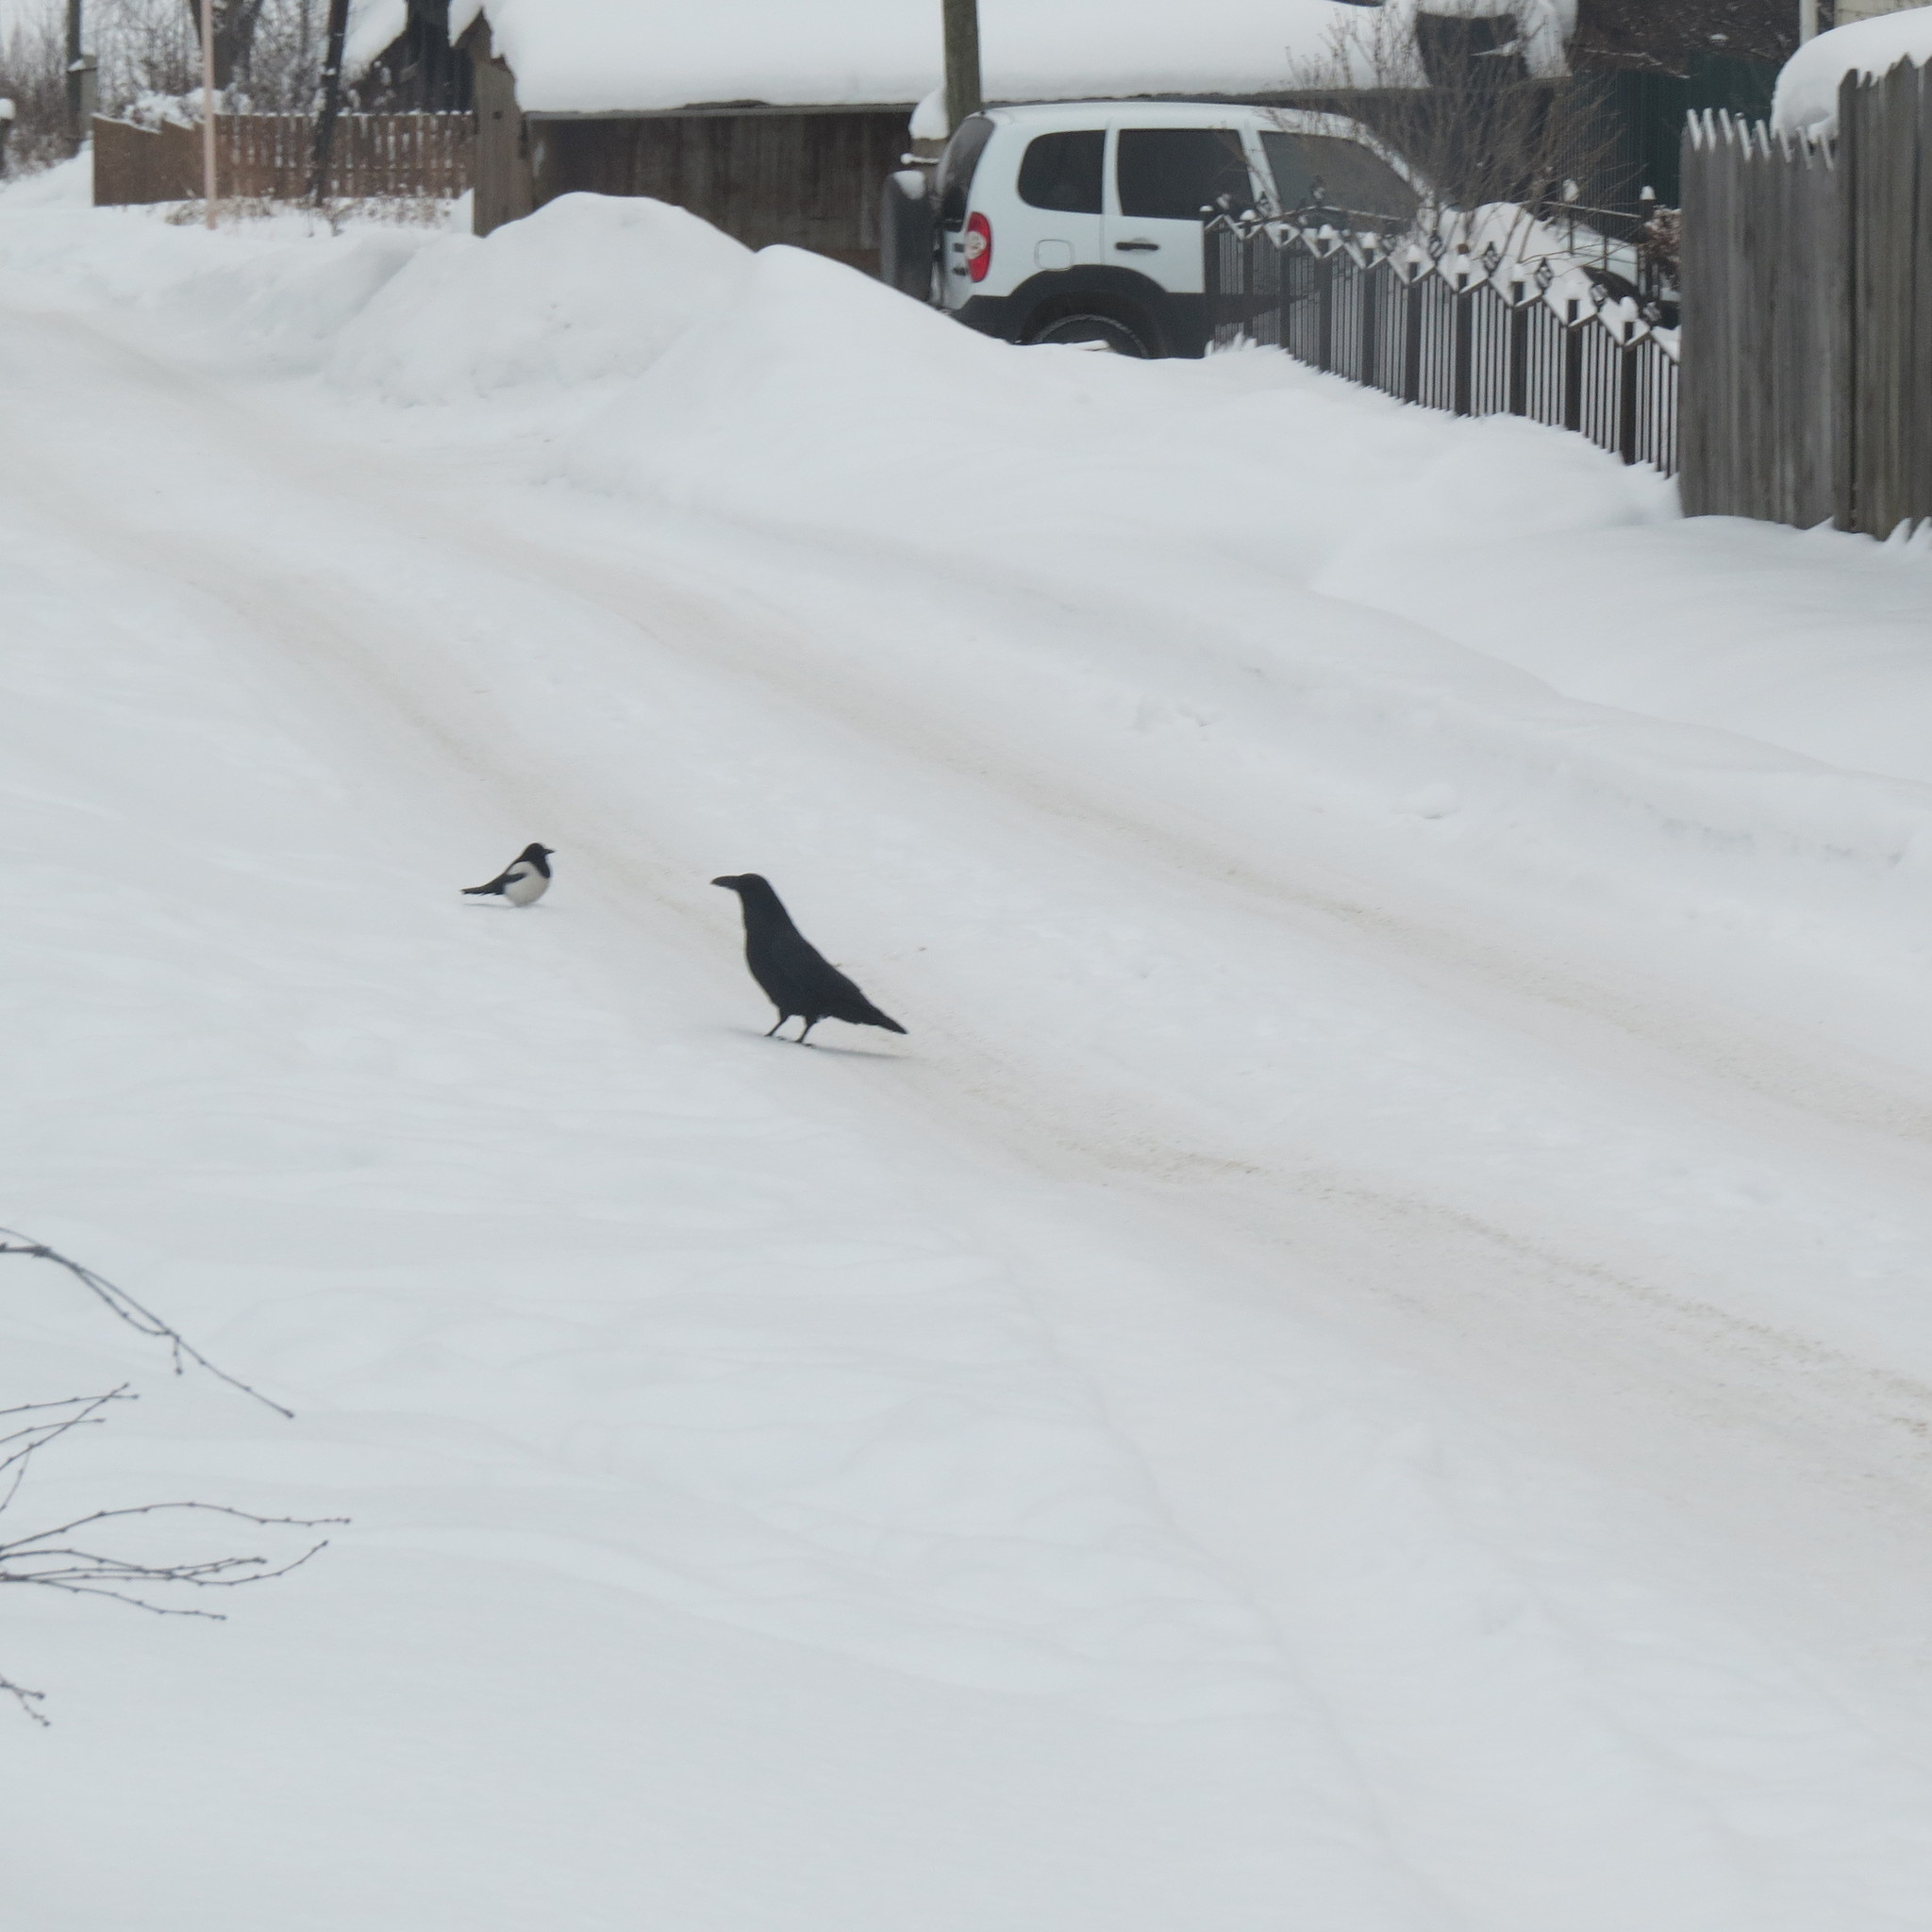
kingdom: Animalia
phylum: Chordata
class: Aves
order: Passeriformes
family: Corvidae
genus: Corvus
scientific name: Corvus corax
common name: Common raven
